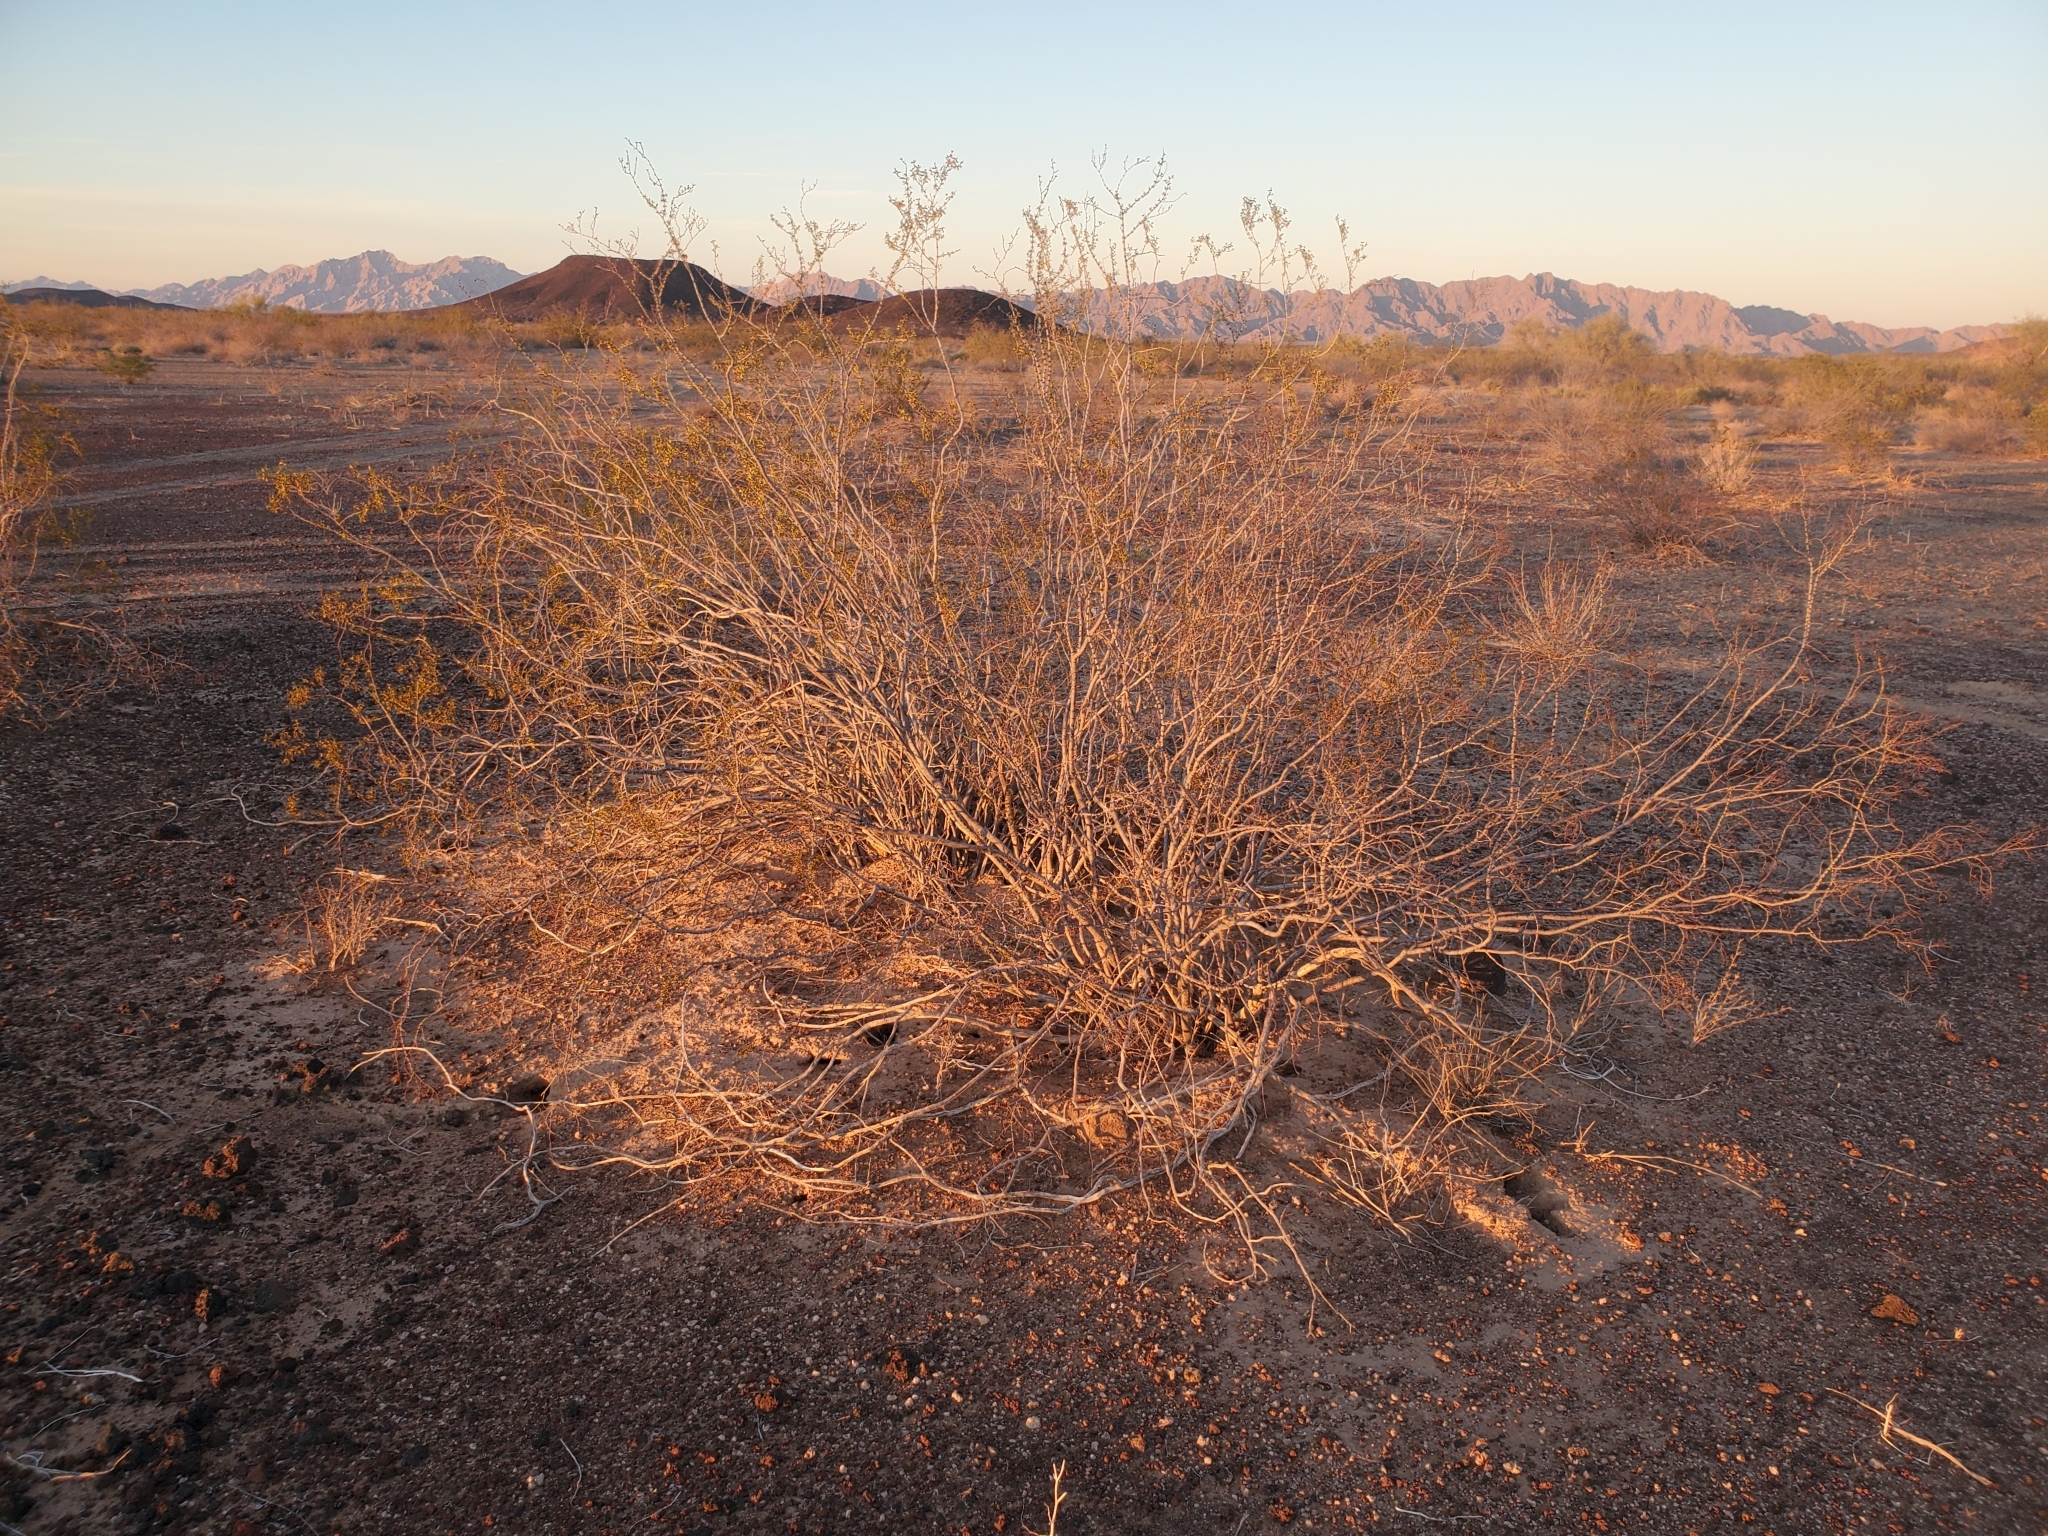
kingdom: Plantae
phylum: Tracheophyta
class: Magnoliopsida
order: Zygophyllales
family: Zygophyllaceae
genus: Larrea
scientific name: Larrea tridentata
